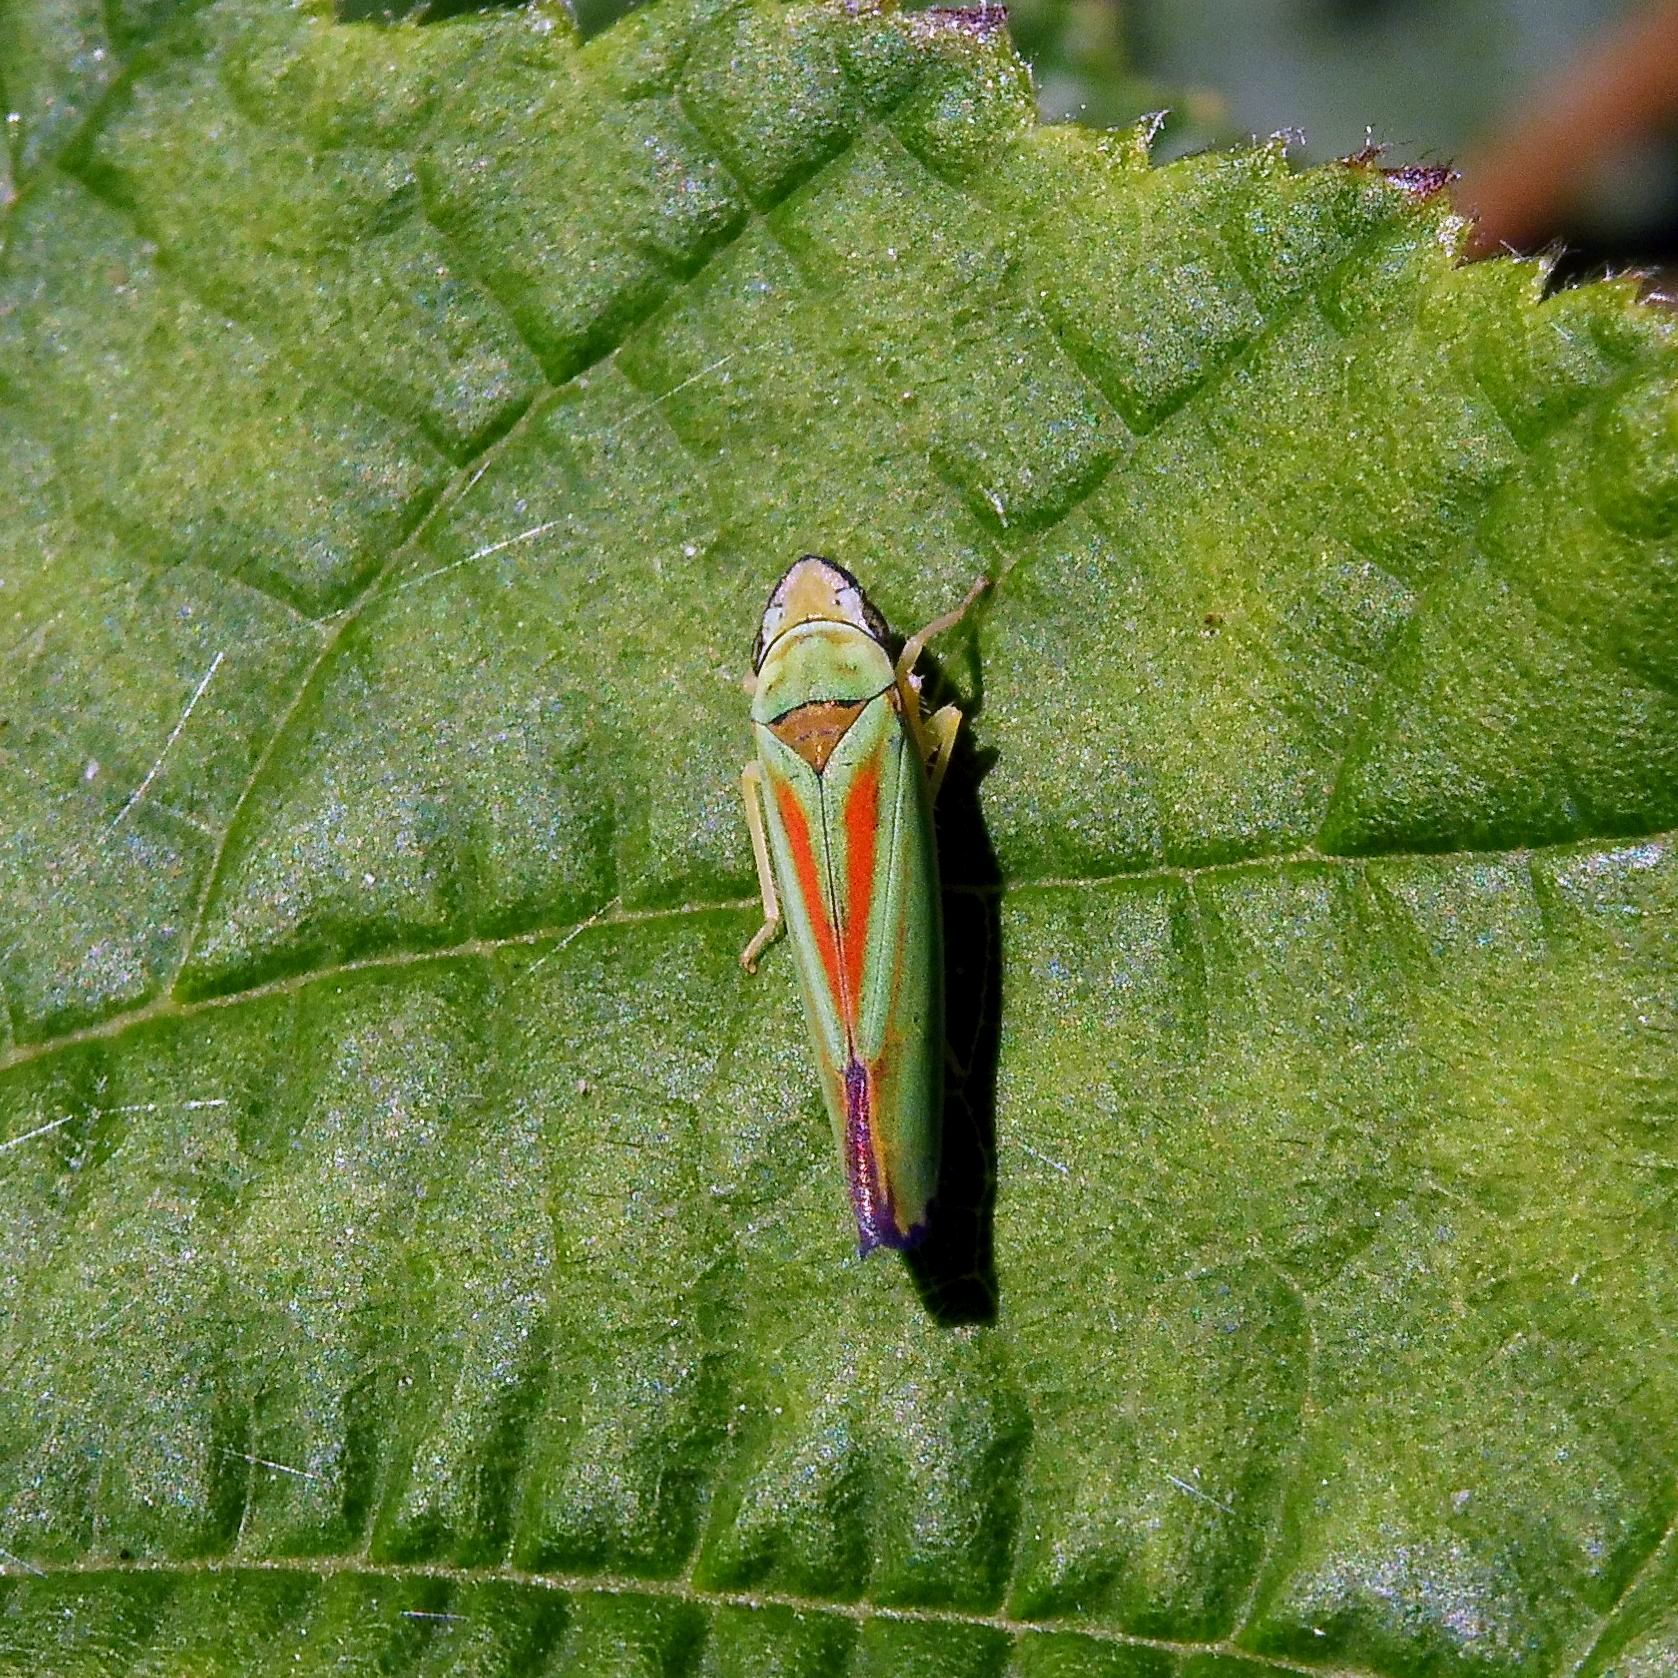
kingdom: Animalia
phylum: Arthropoda
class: Insecta
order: Hemiptera
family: Cicadellidae
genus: Graphocephala
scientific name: Graphocephala fennahi
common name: Rhododendron leafhopper
